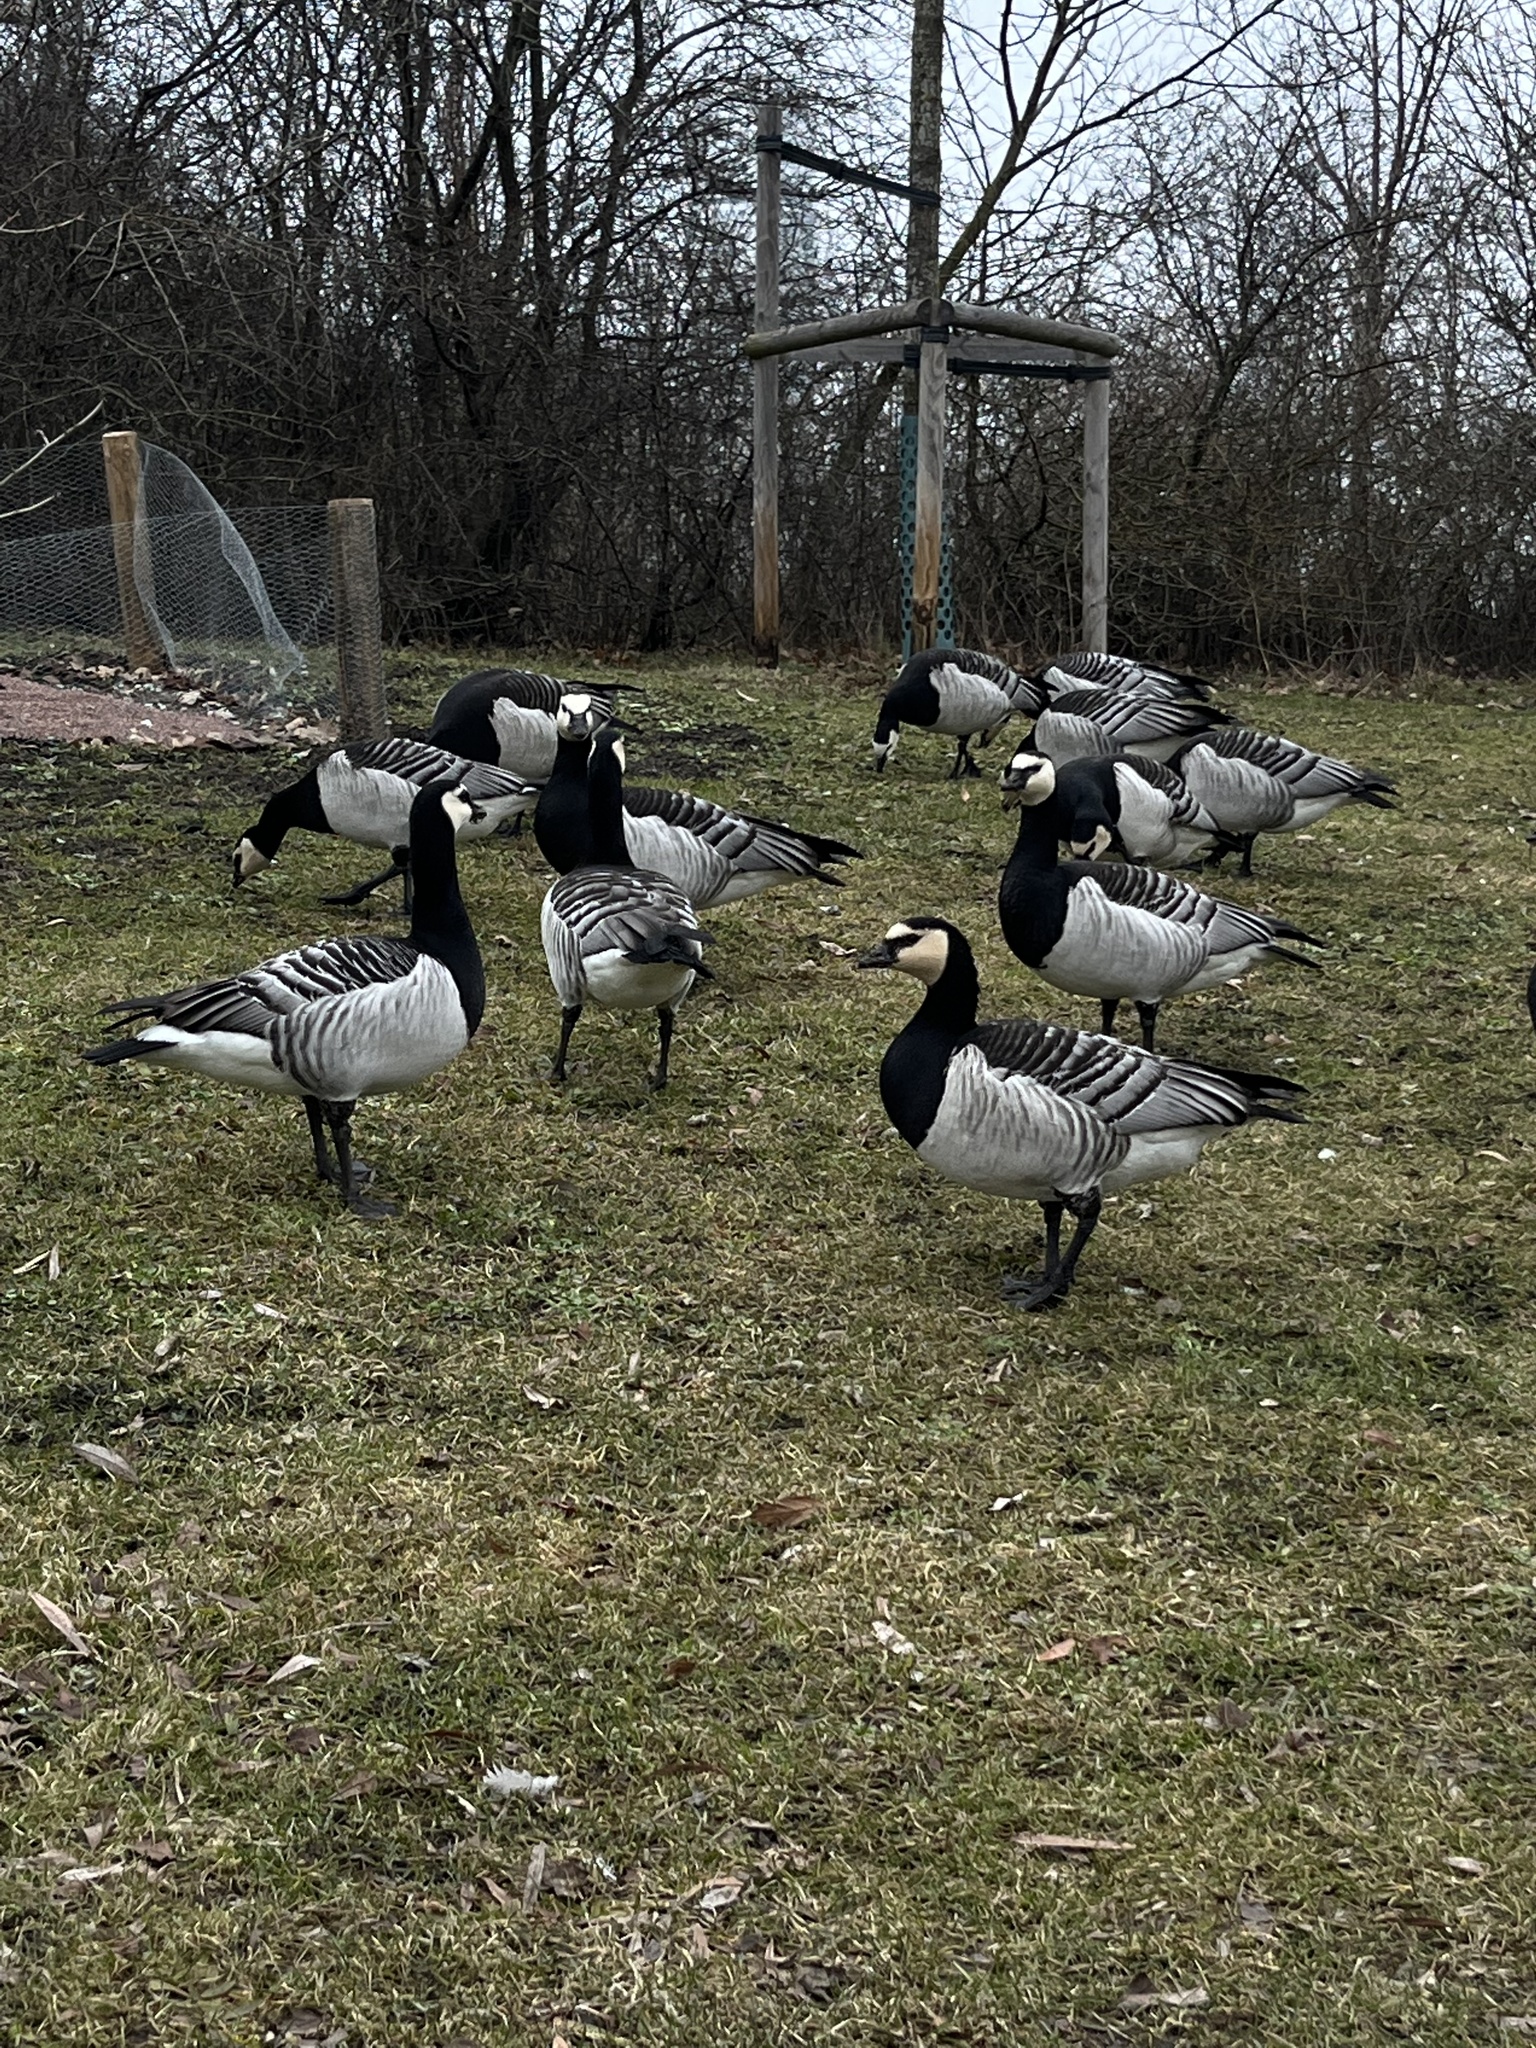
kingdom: Animalia
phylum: Chordata
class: Aves
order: Anseriformes
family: Anatidae
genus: Branta
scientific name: Branta leucopsis
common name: Barnacle goose
